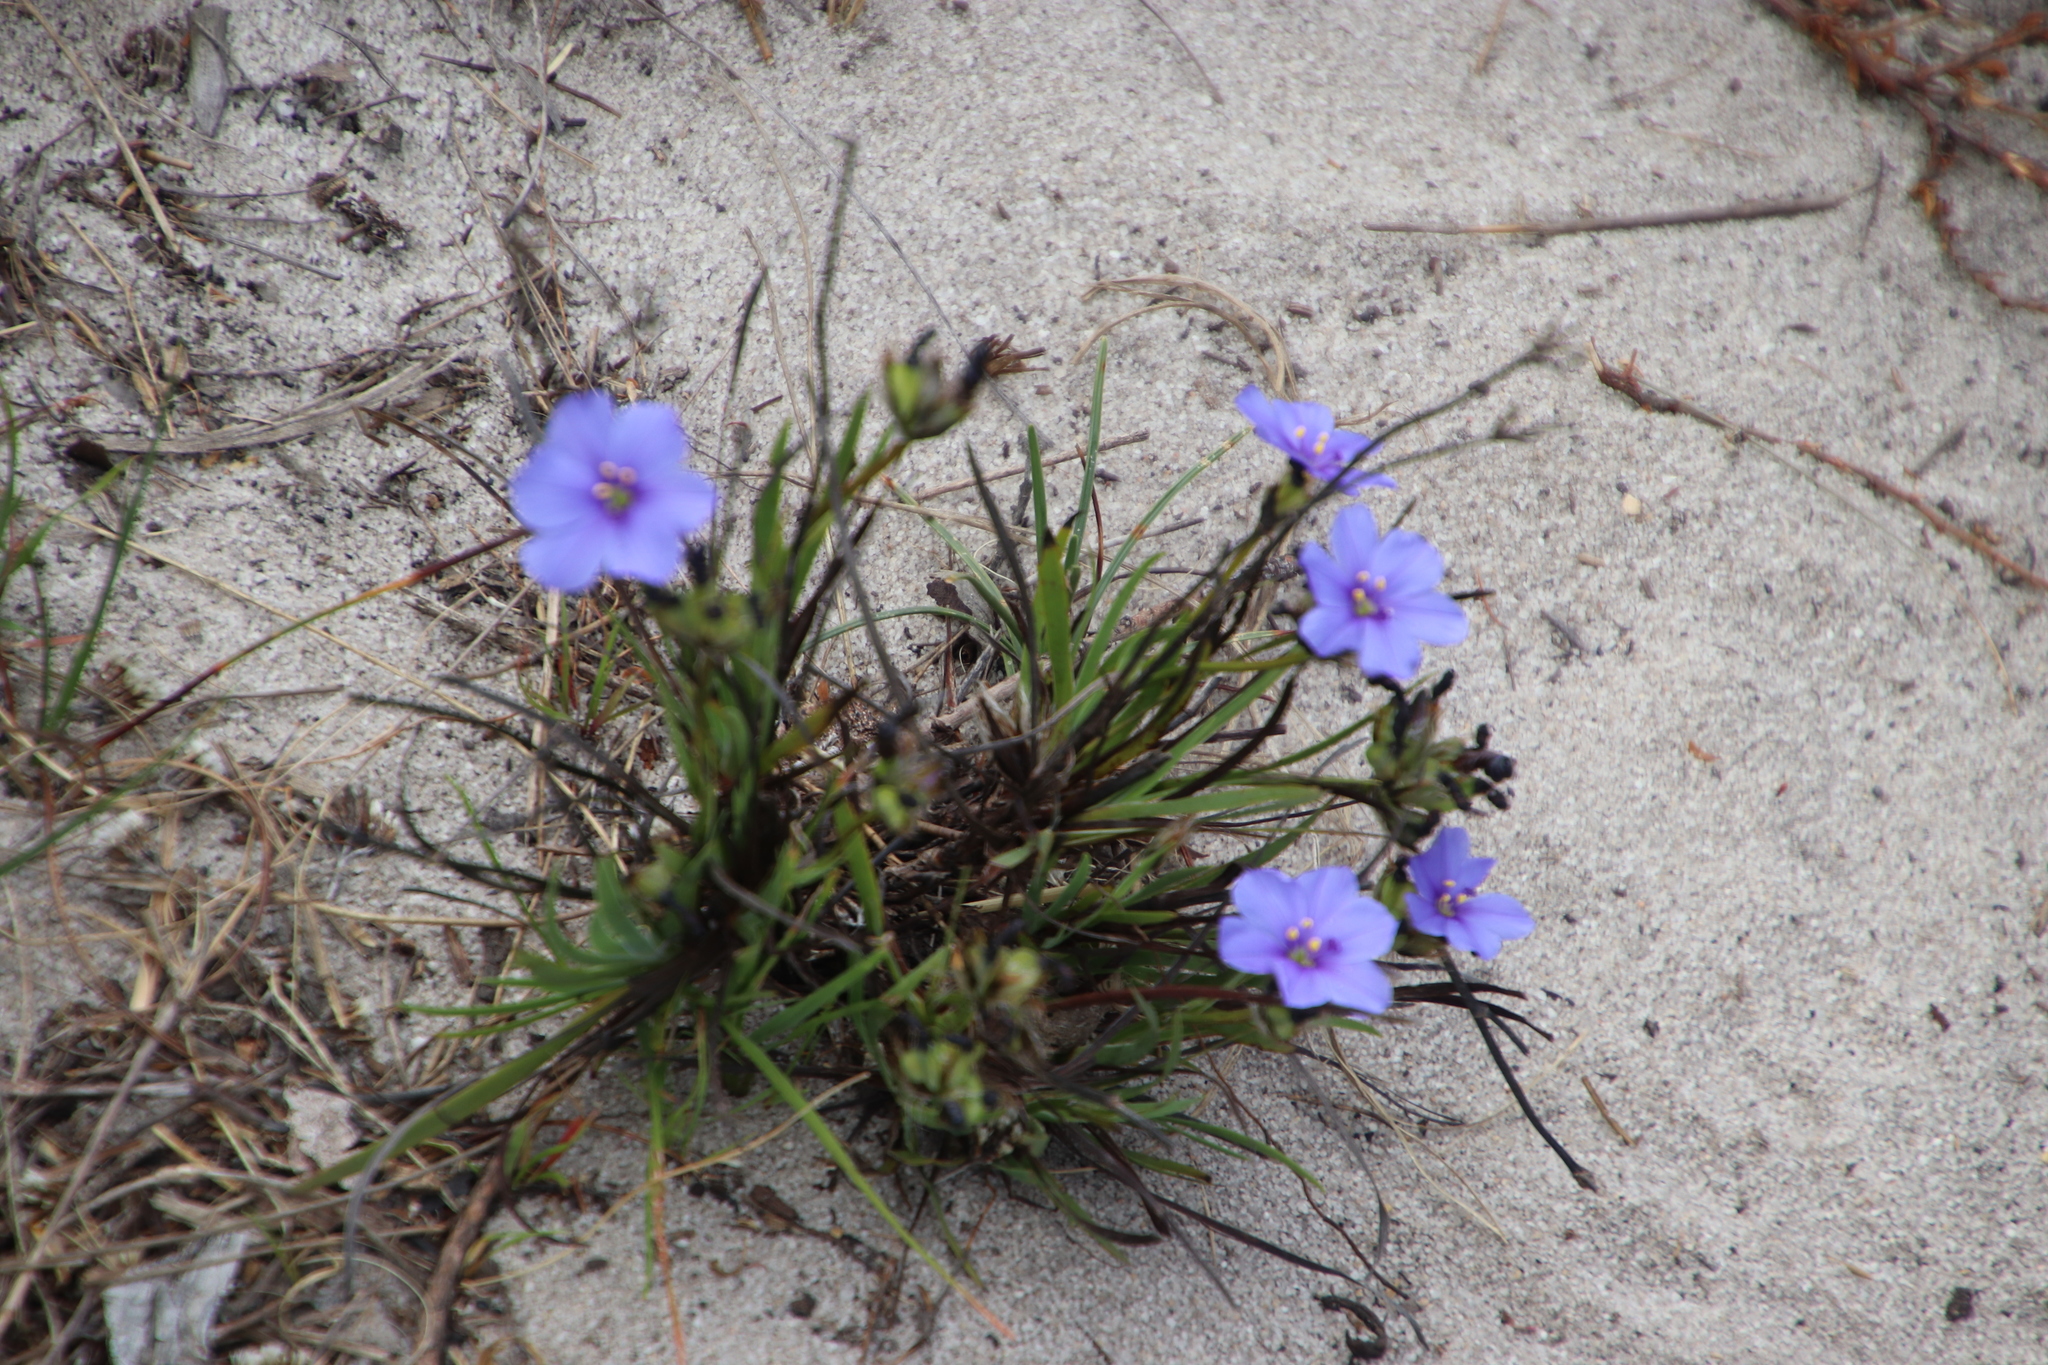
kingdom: Plantae
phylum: Tracheophyta
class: Liliopsida
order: Asparagales
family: Iridaceae
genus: Aristea
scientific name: Aristea africana
